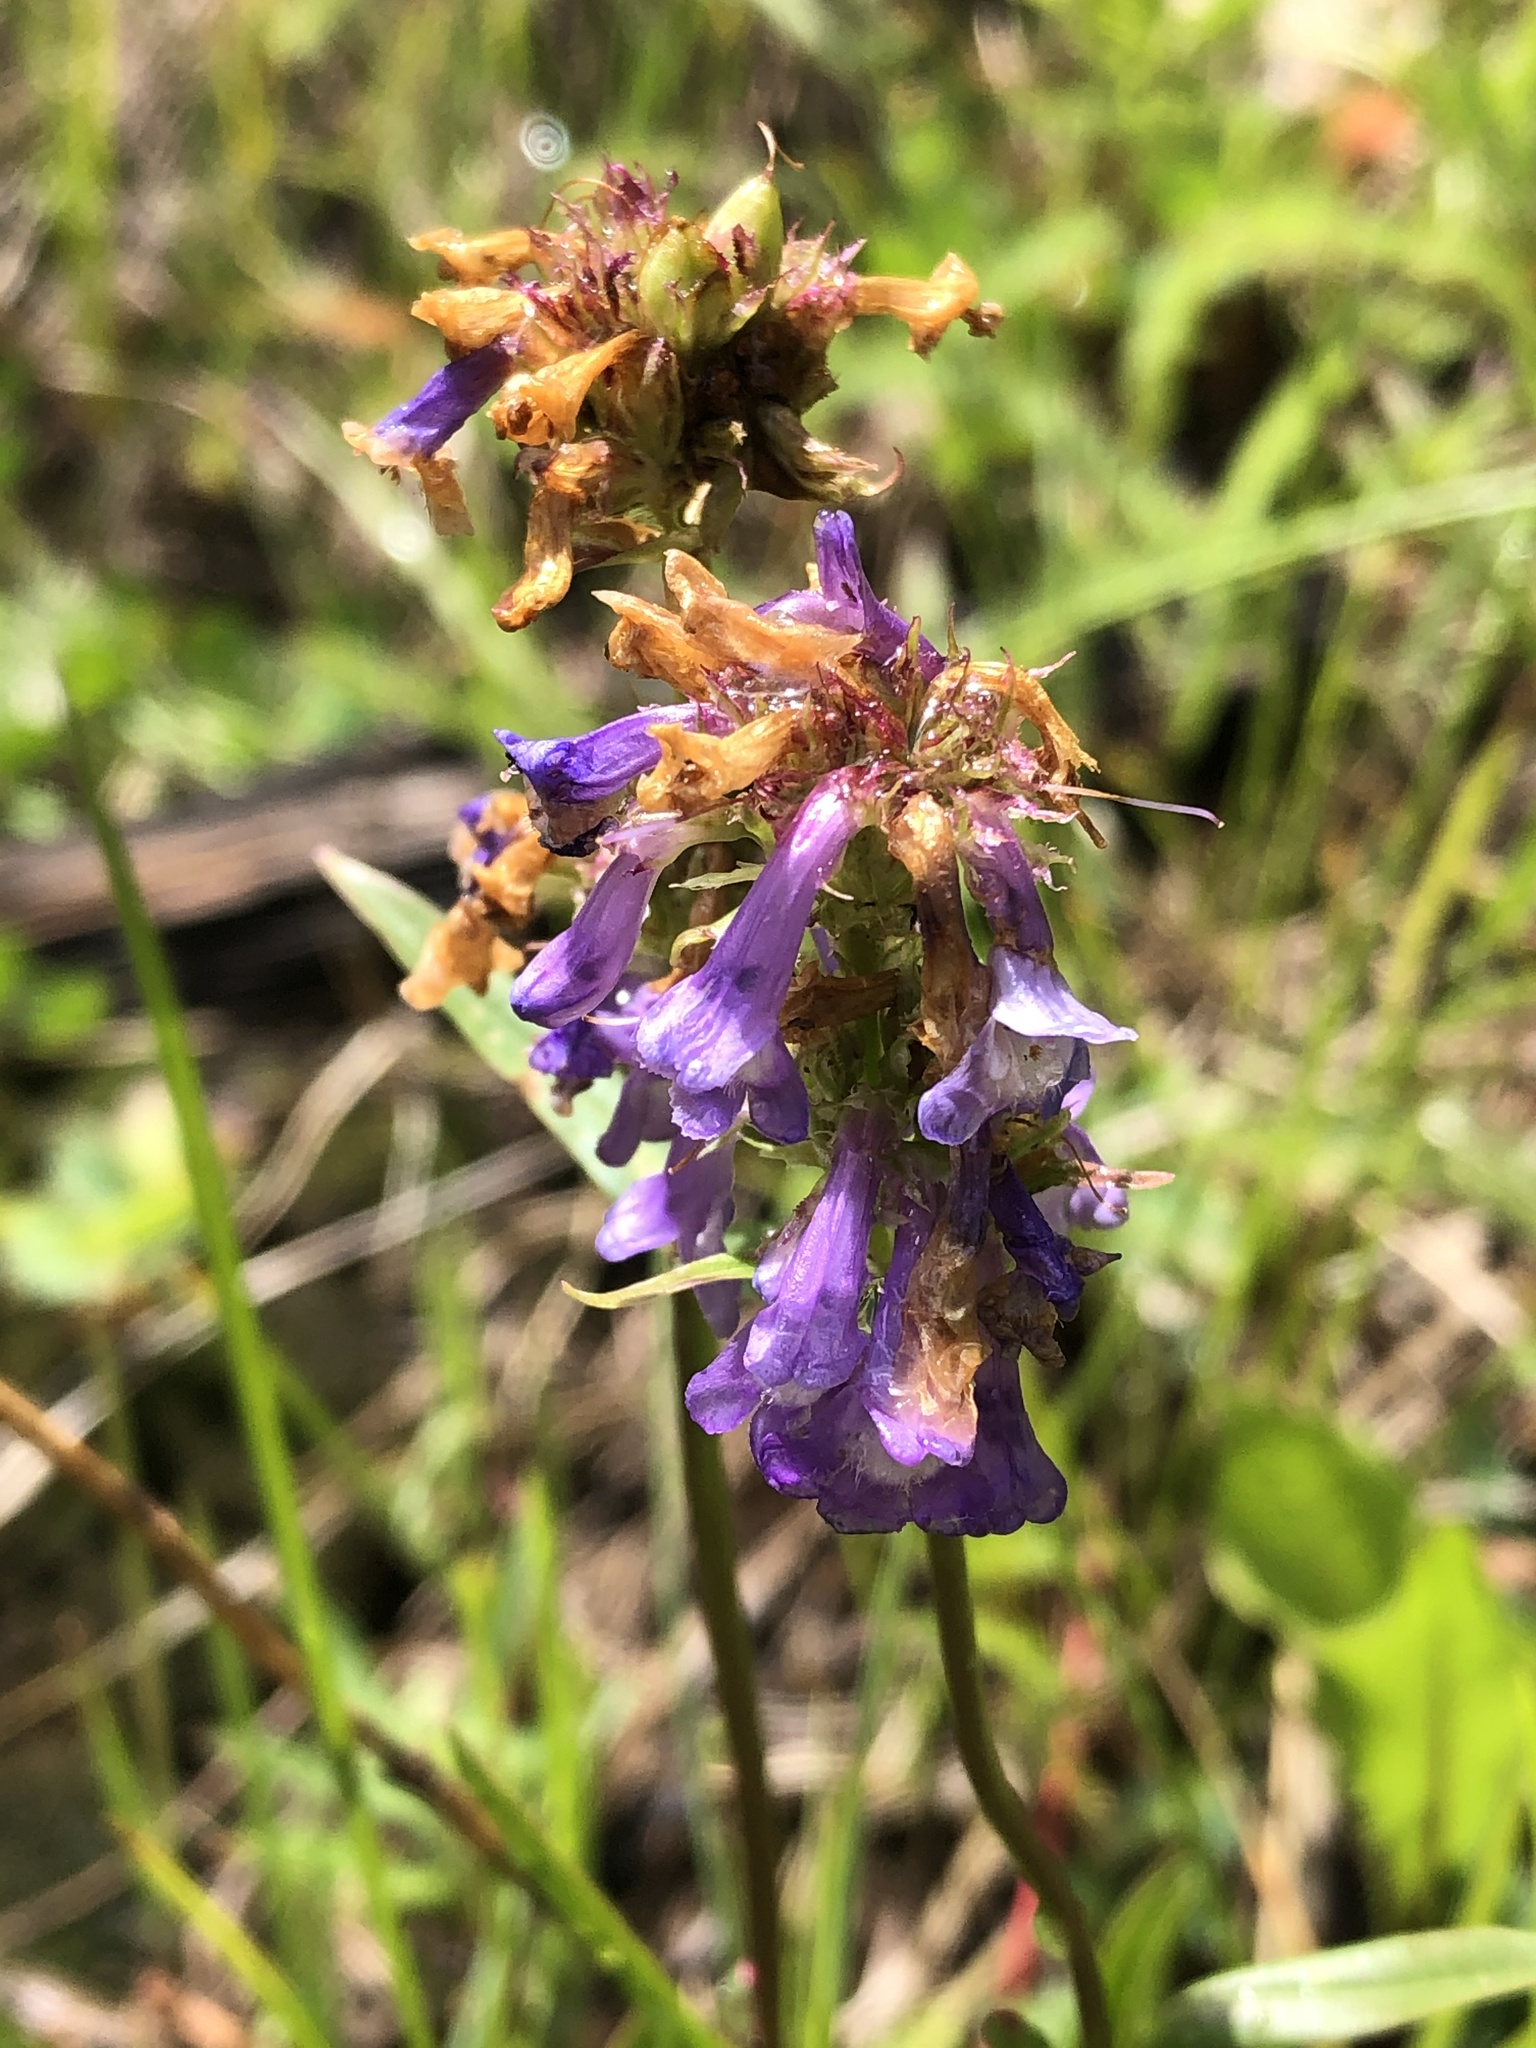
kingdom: Plantae
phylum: Tracheophyta
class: Magnoliopsida
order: Lamiales
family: Plantaginaceae
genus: Penstemon
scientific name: Penstemon rydbergii
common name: Rydberg's beardtongue
